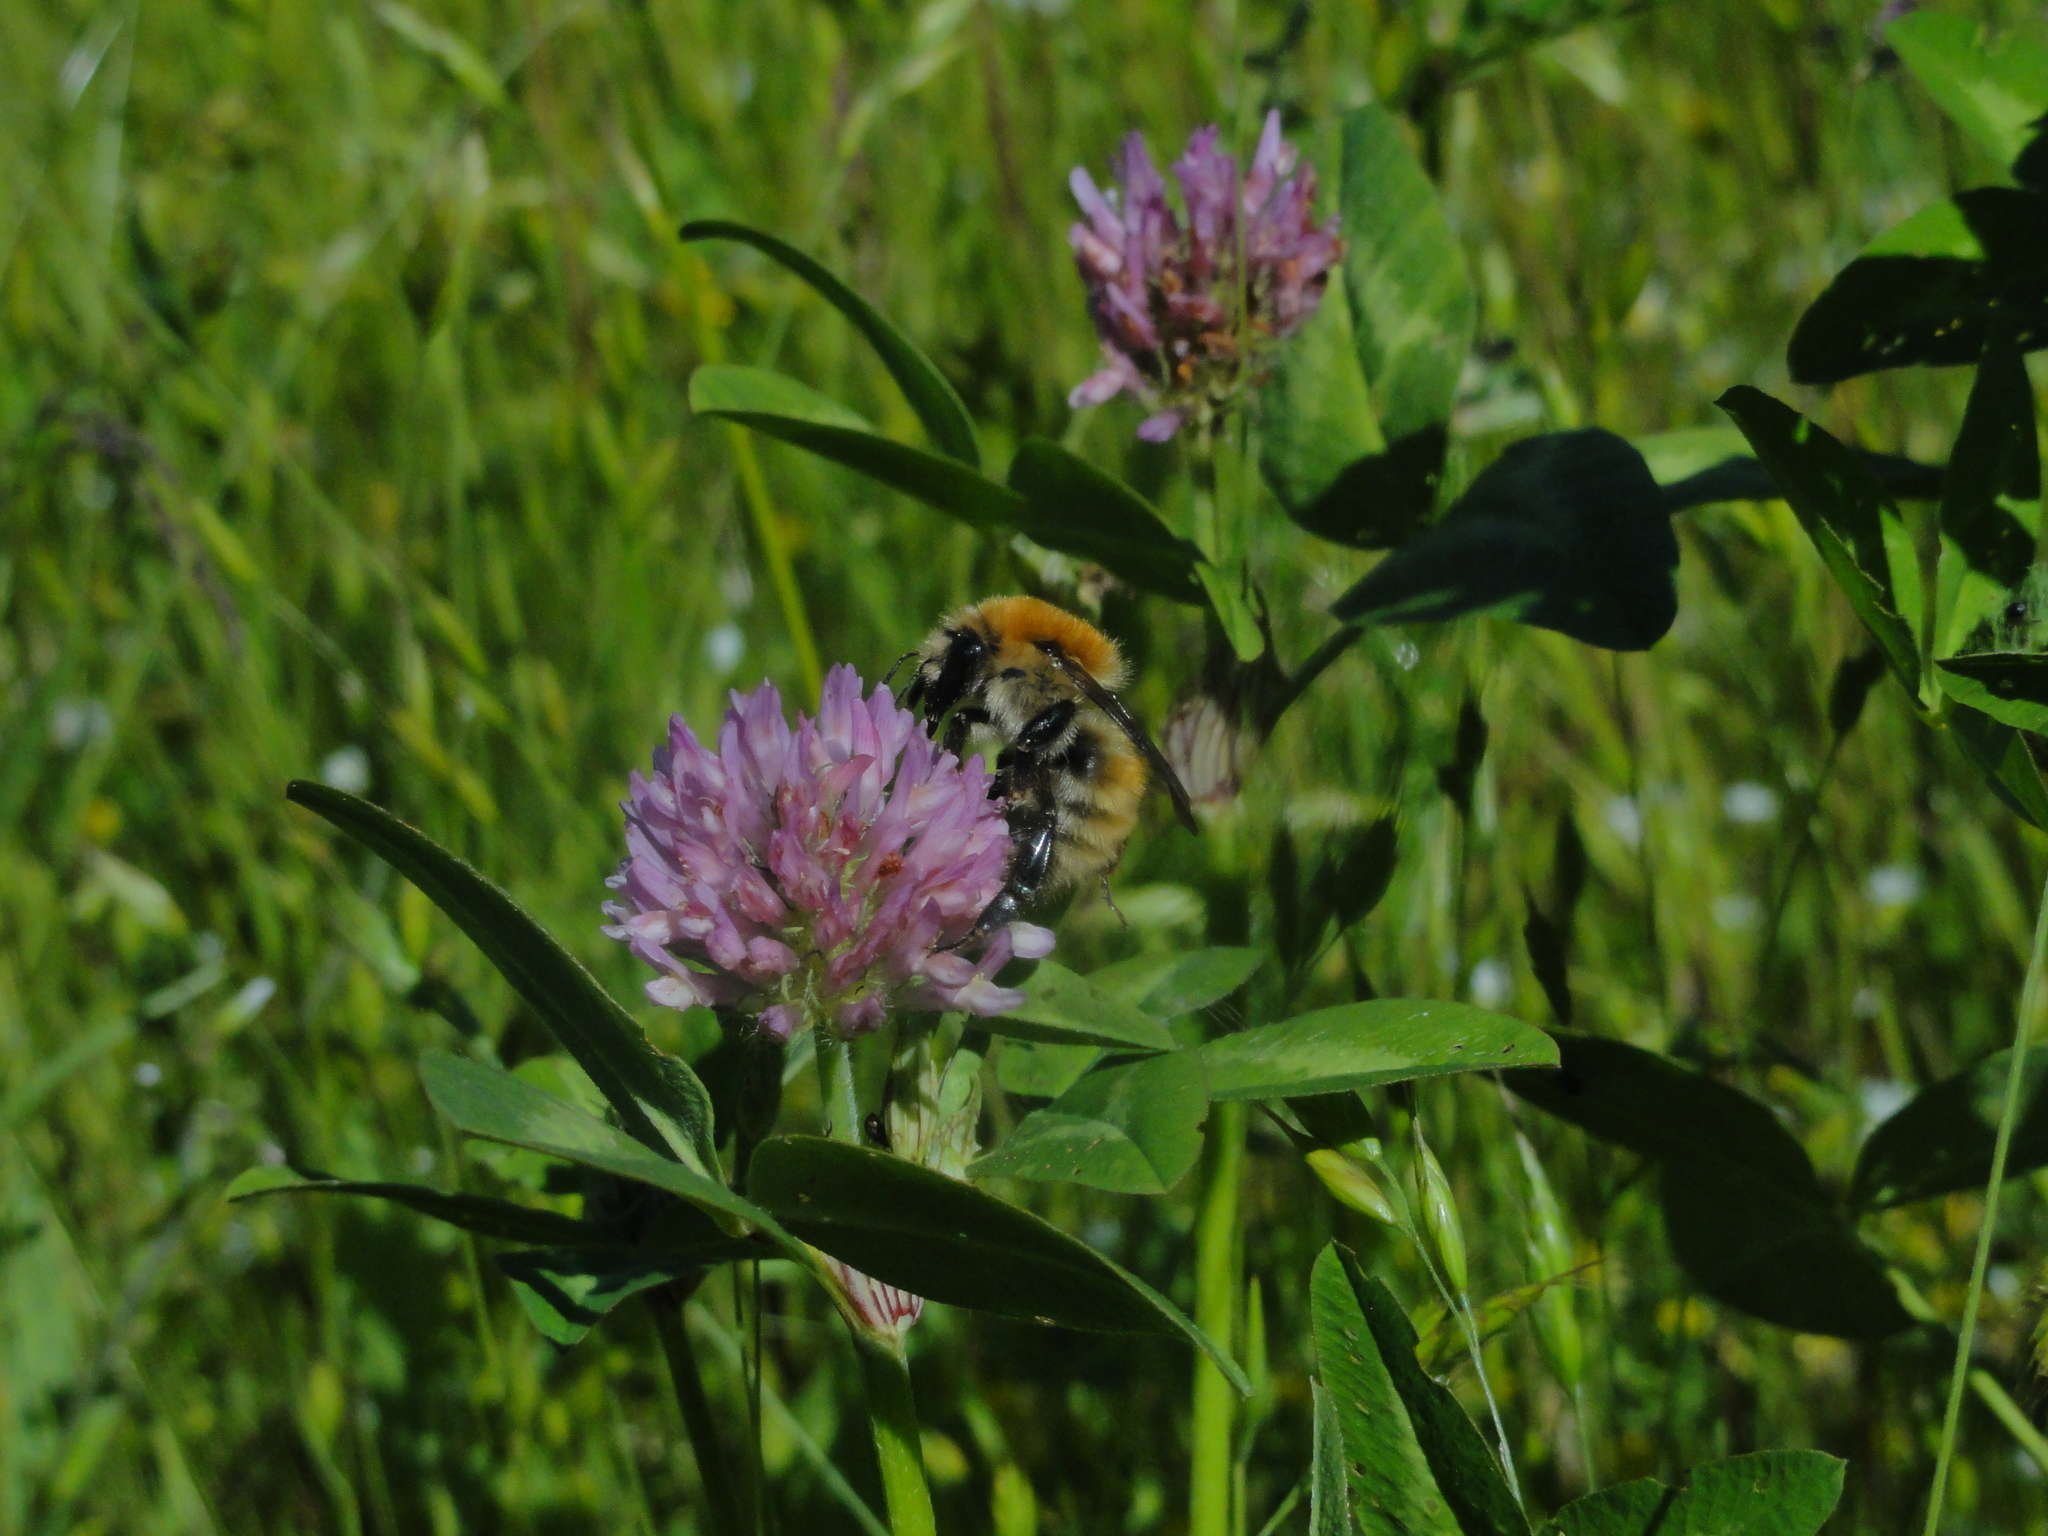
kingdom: Animalia
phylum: Arthropoda
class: Insecta
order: Hymenoptera
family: Apidae
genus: Bombus
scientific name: Bombus muscorum
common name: Moss carder-bee
